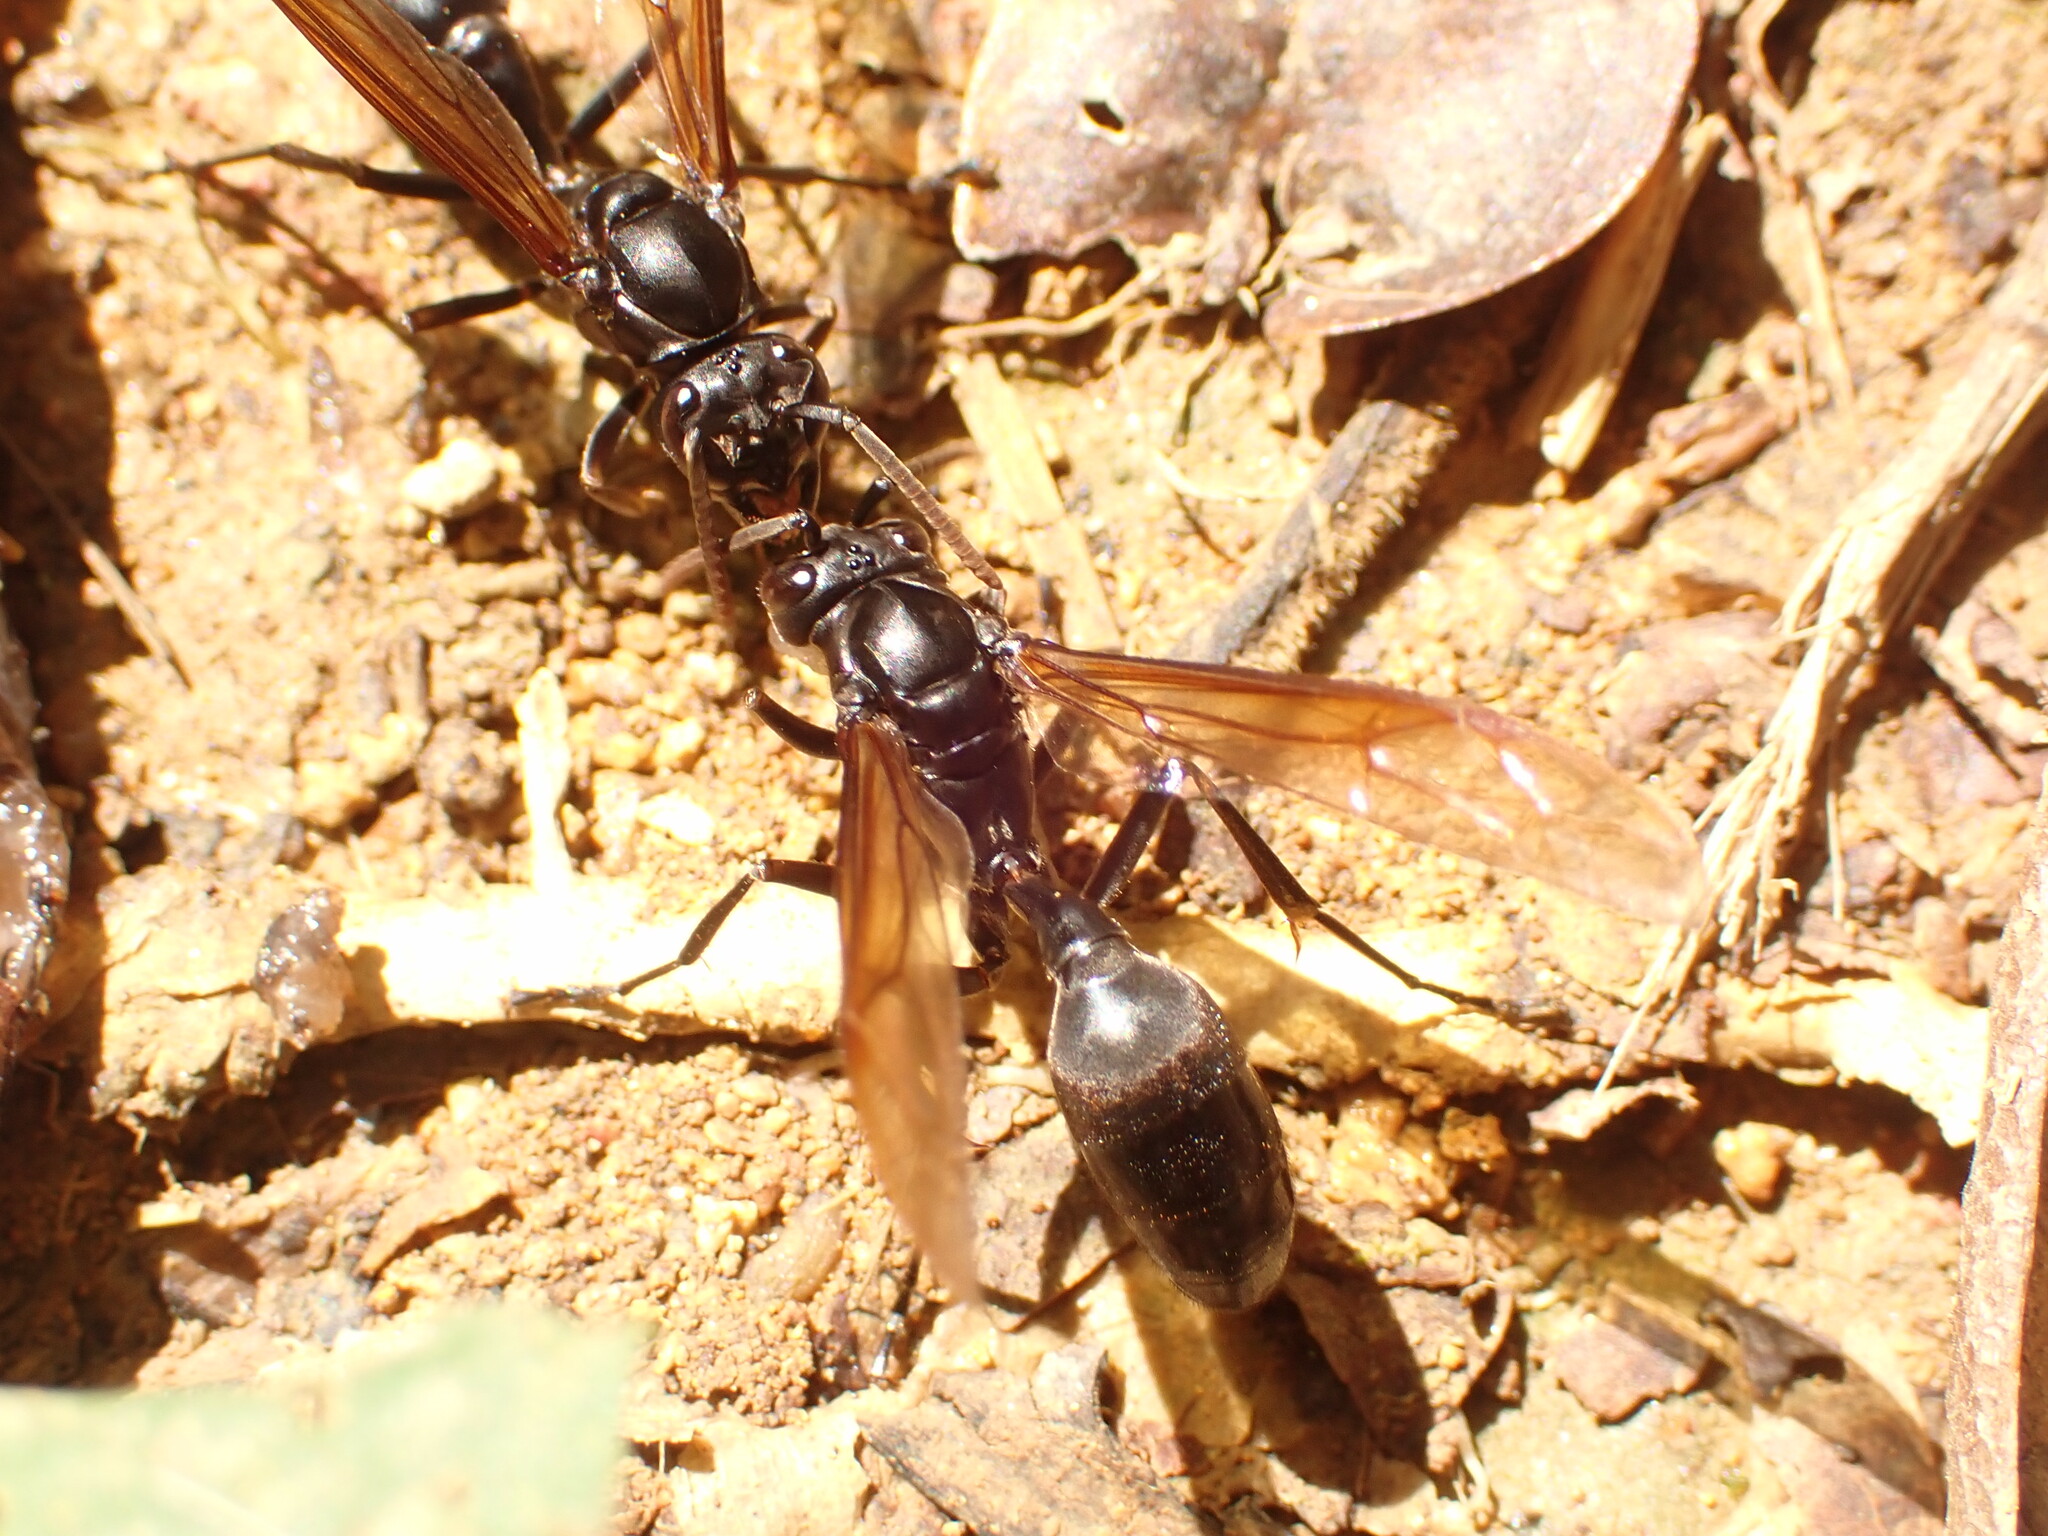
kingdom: Animalia
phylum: Arthropoda
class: Insecta
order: Hymenoptera
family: Vespidae
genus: Agelaia
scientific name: Agelaia angulata
